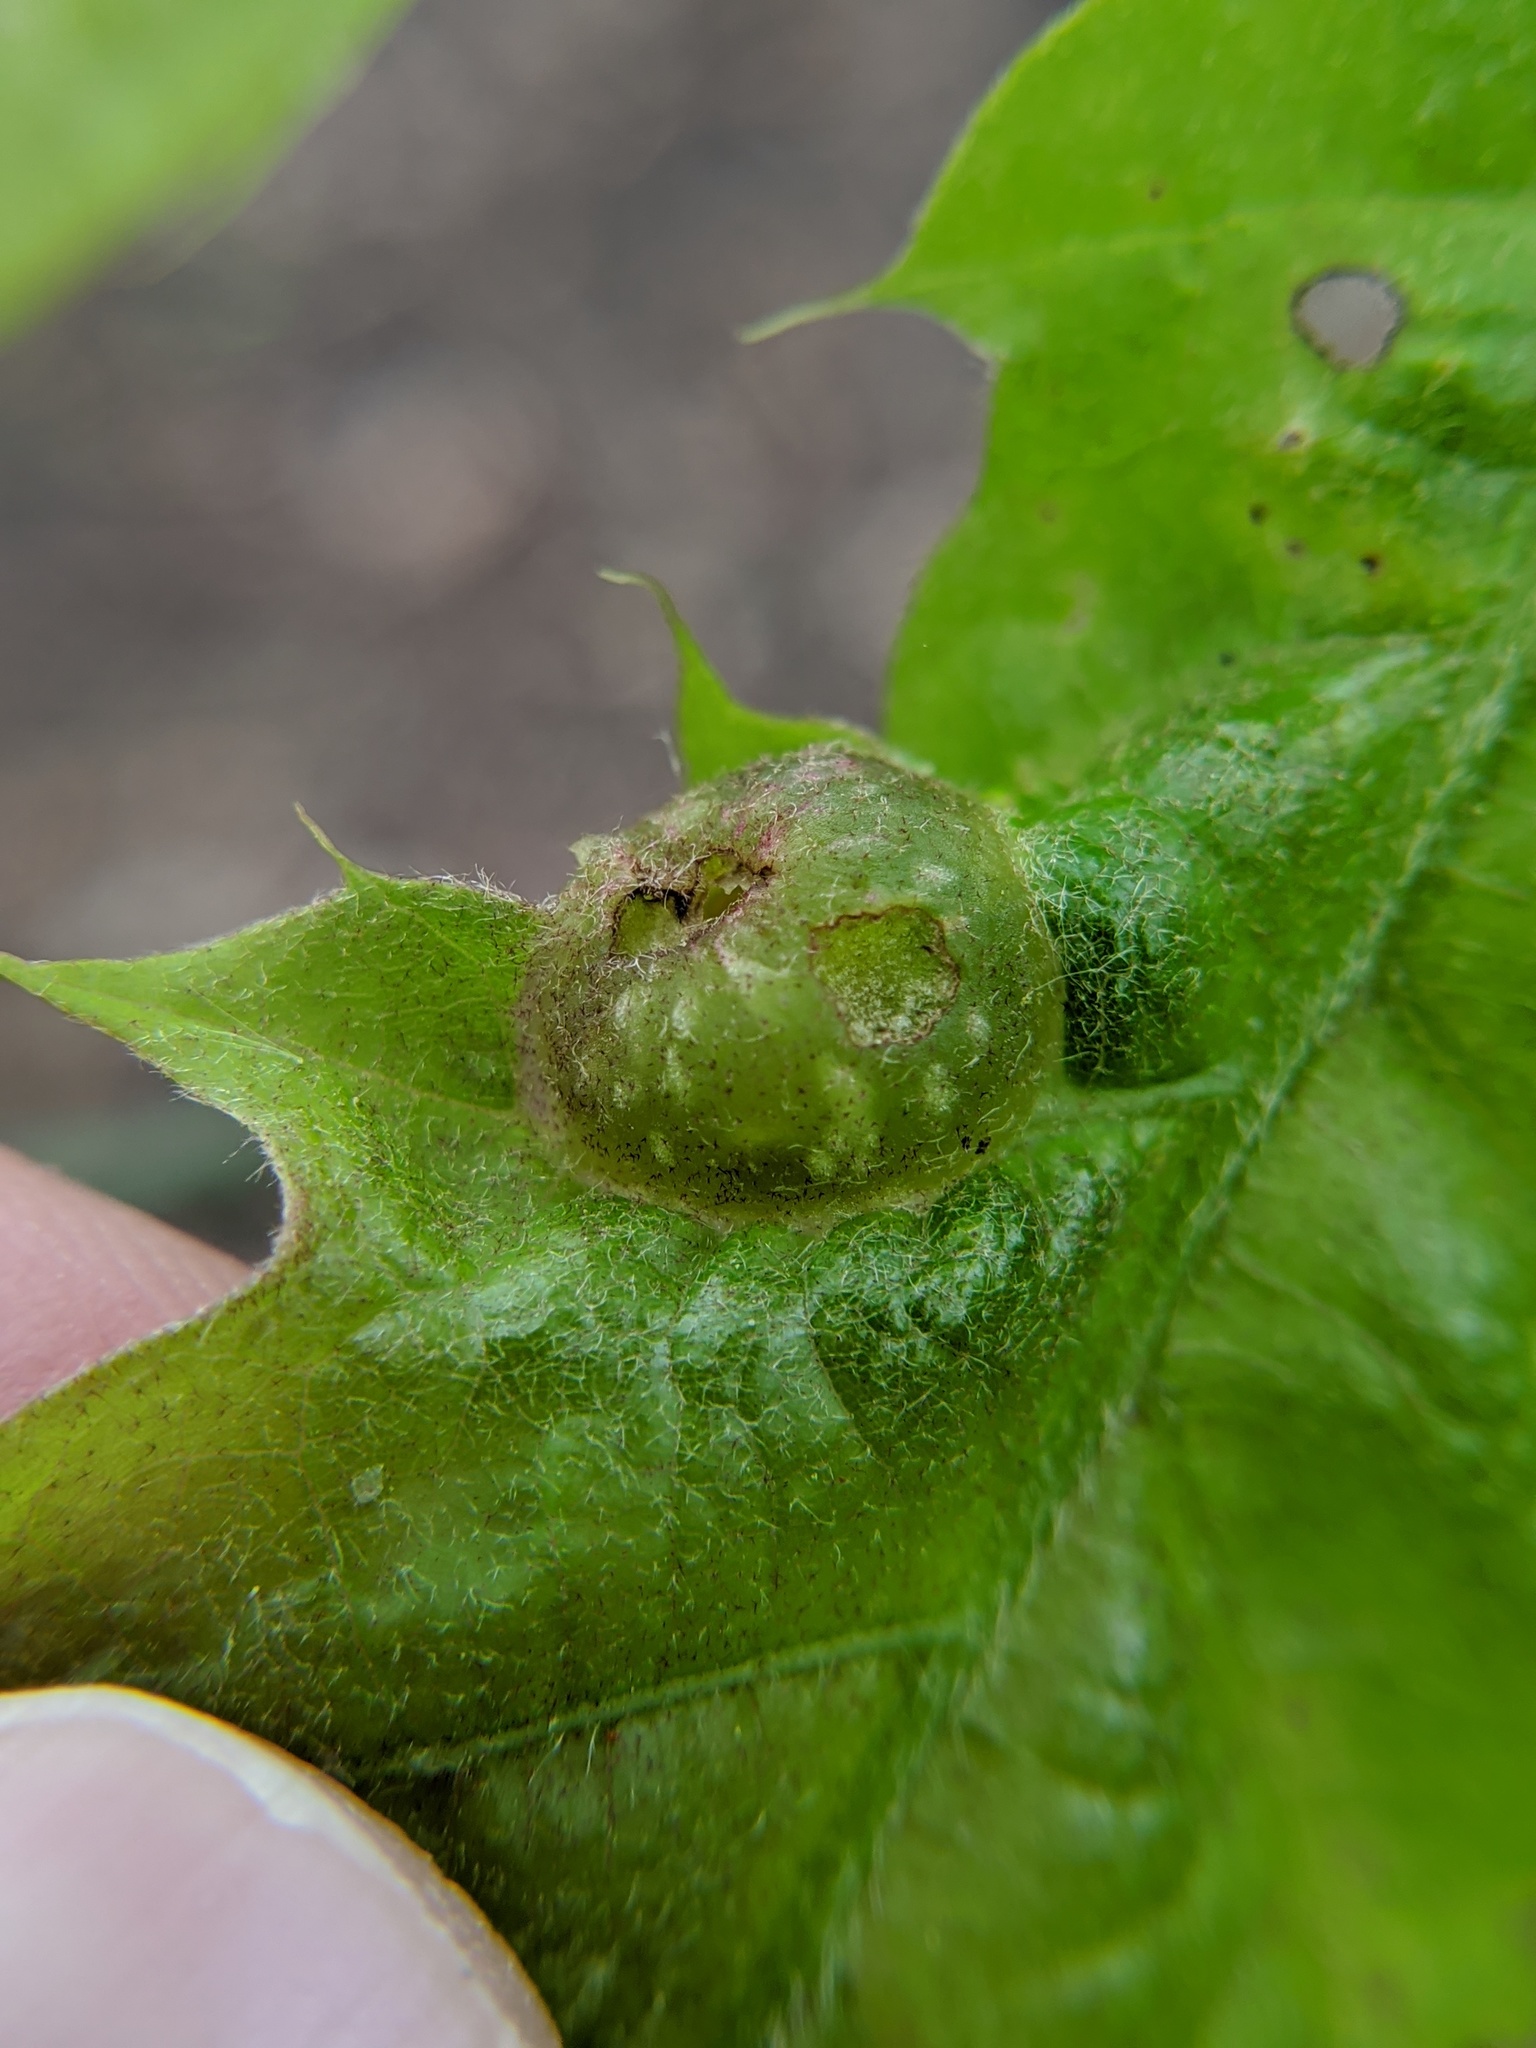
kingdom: Animalia
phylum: Arthropoda
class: Insecta
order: Hymenoptera
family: Cynipidae
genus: Dryocosmus
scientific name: Dryocosmus quercuspalustris
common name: Succulent oak gall wasp
